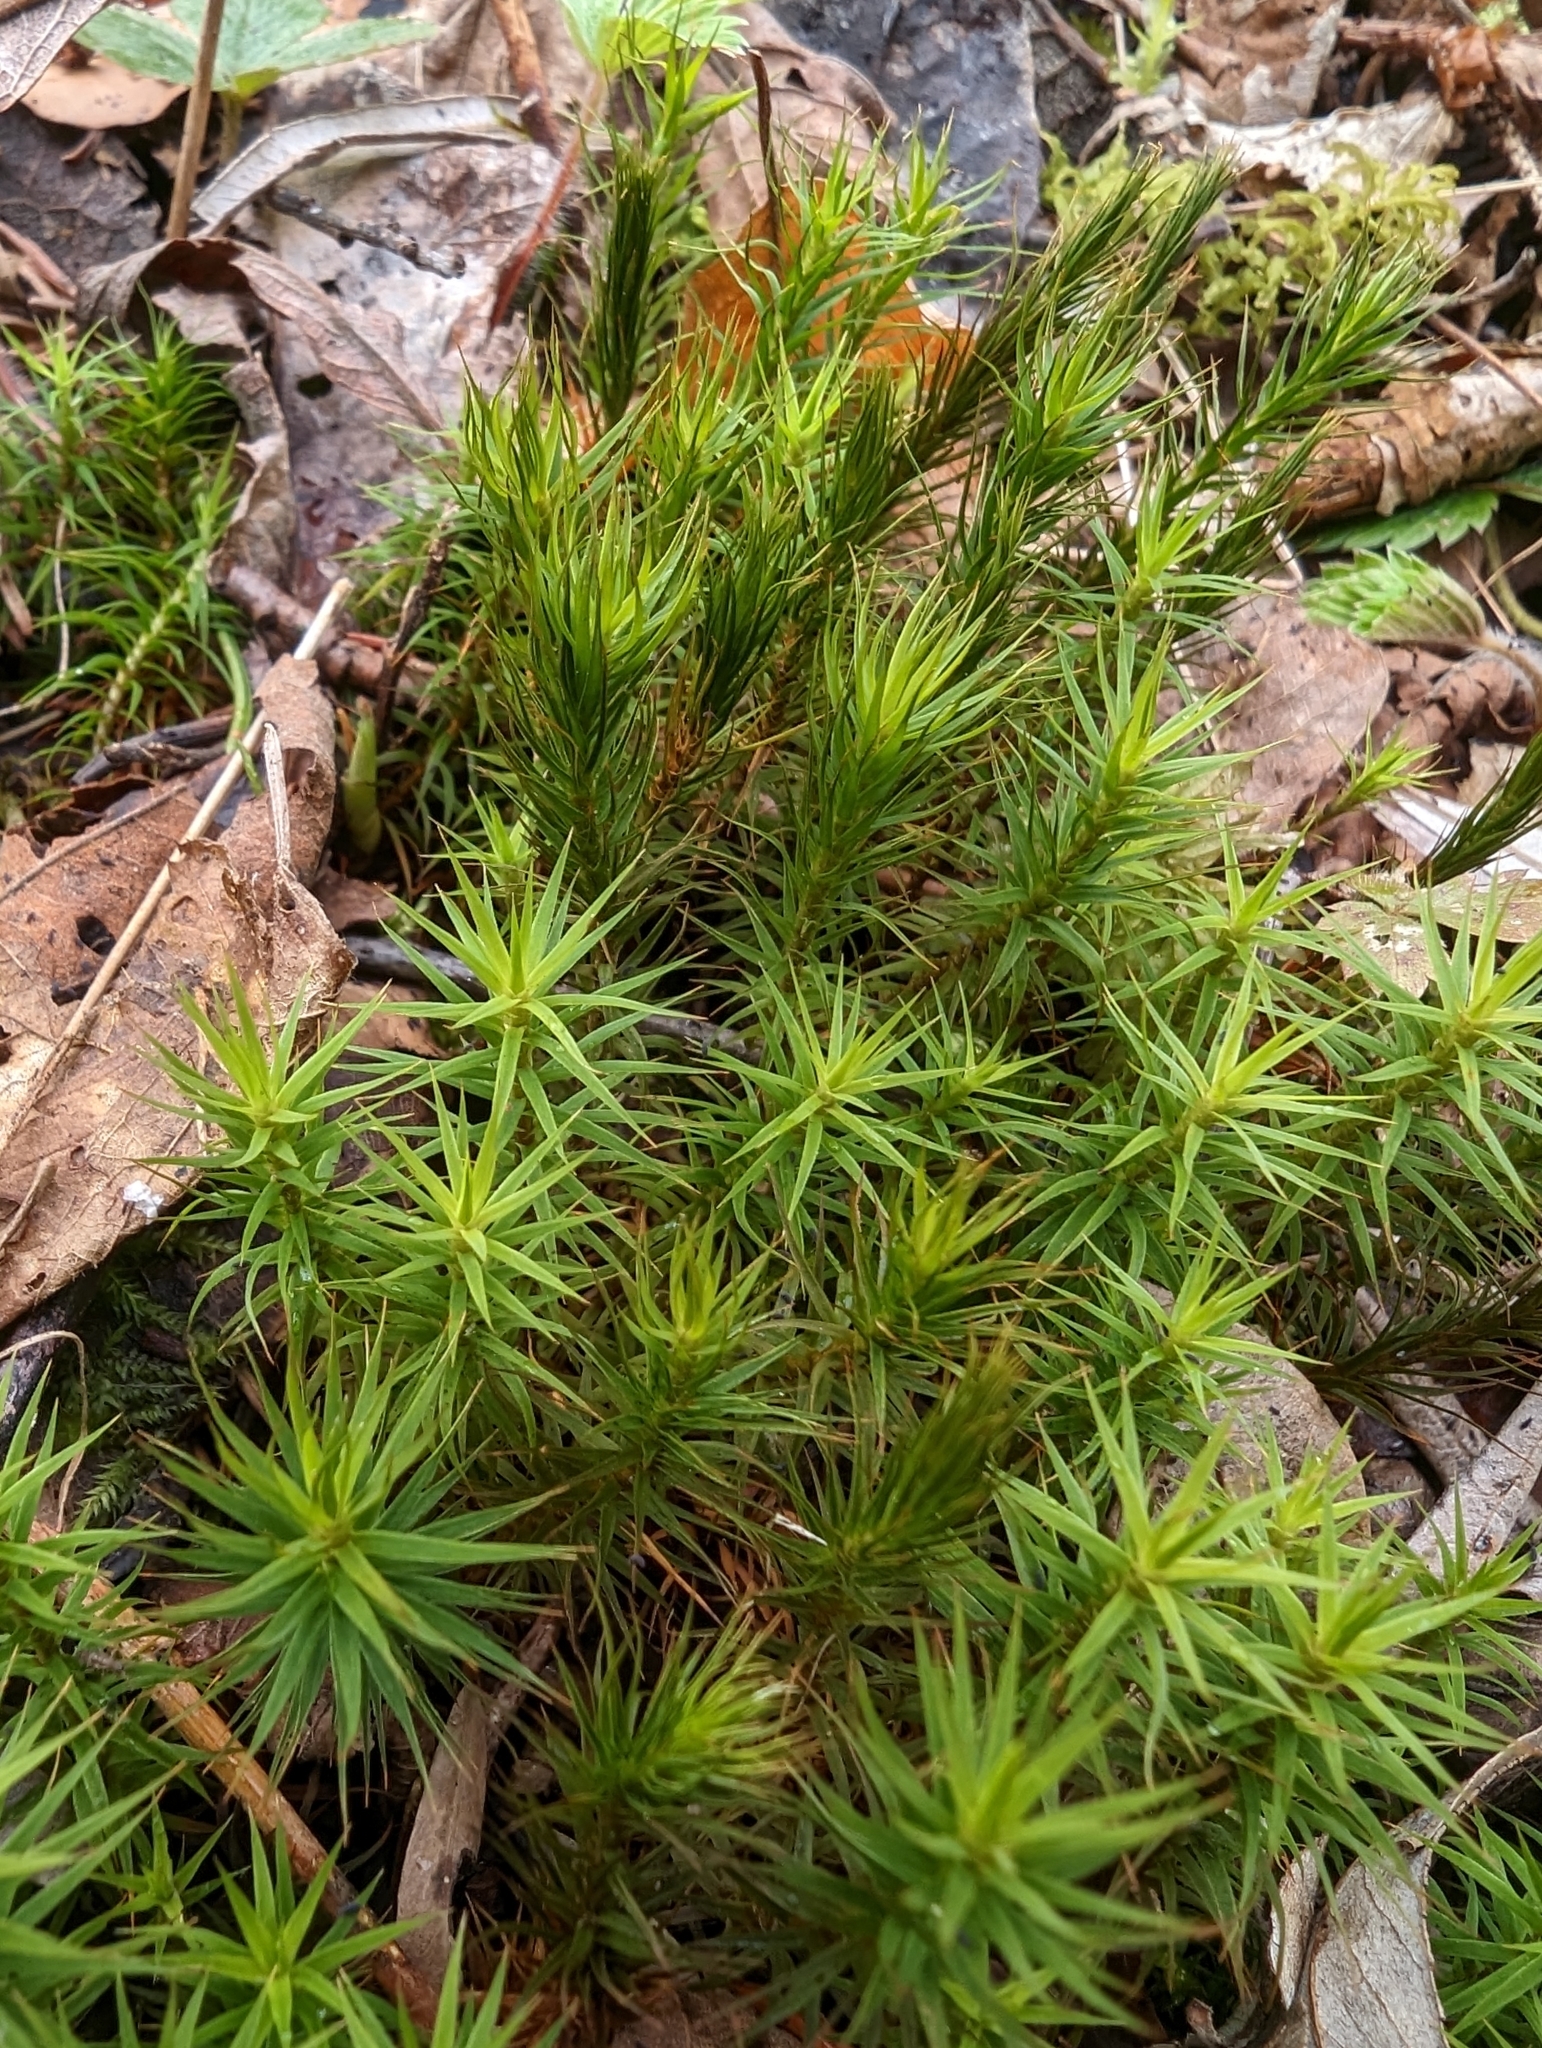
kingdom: Plantae
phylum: Bryophyta
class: Polytrichopsida
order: Polytrichales
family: Polytrichaceae
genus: Polytrichum
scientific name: Polytrichum formosum
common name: Bank haircap moss
